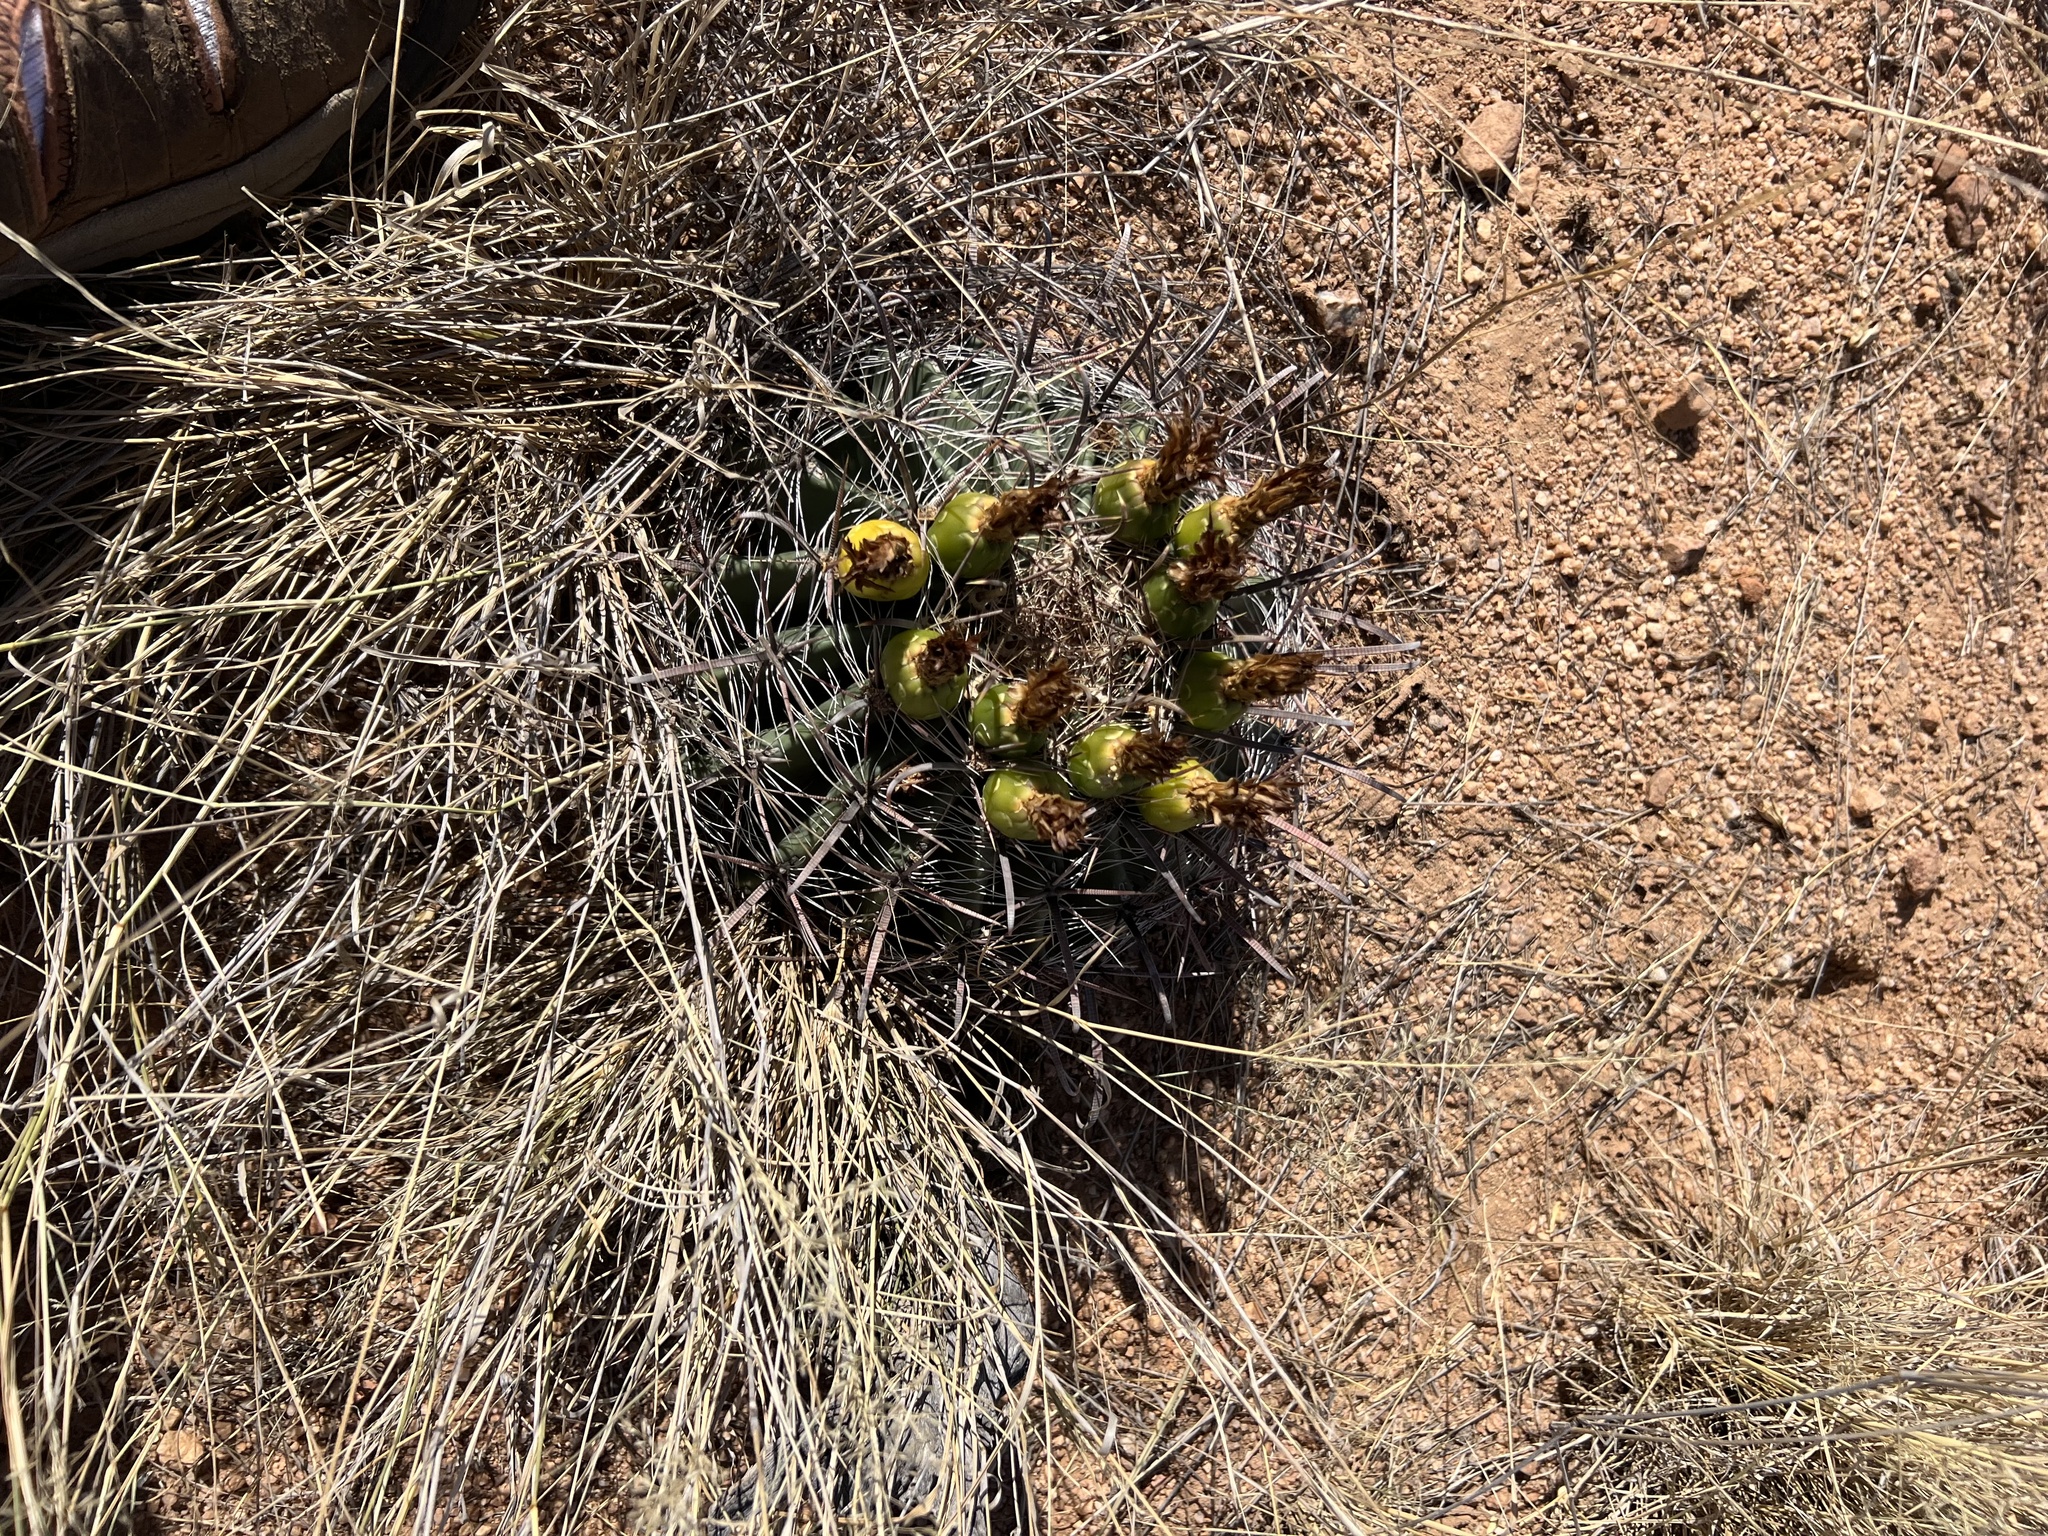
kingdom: Plantae
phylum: Tracheophyta
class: Magnoliopsida
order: Caryophyllales
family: Cactaceae
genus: Ferocactus
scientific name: Ferocactus wislizeni
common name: Candy barrel cactus
